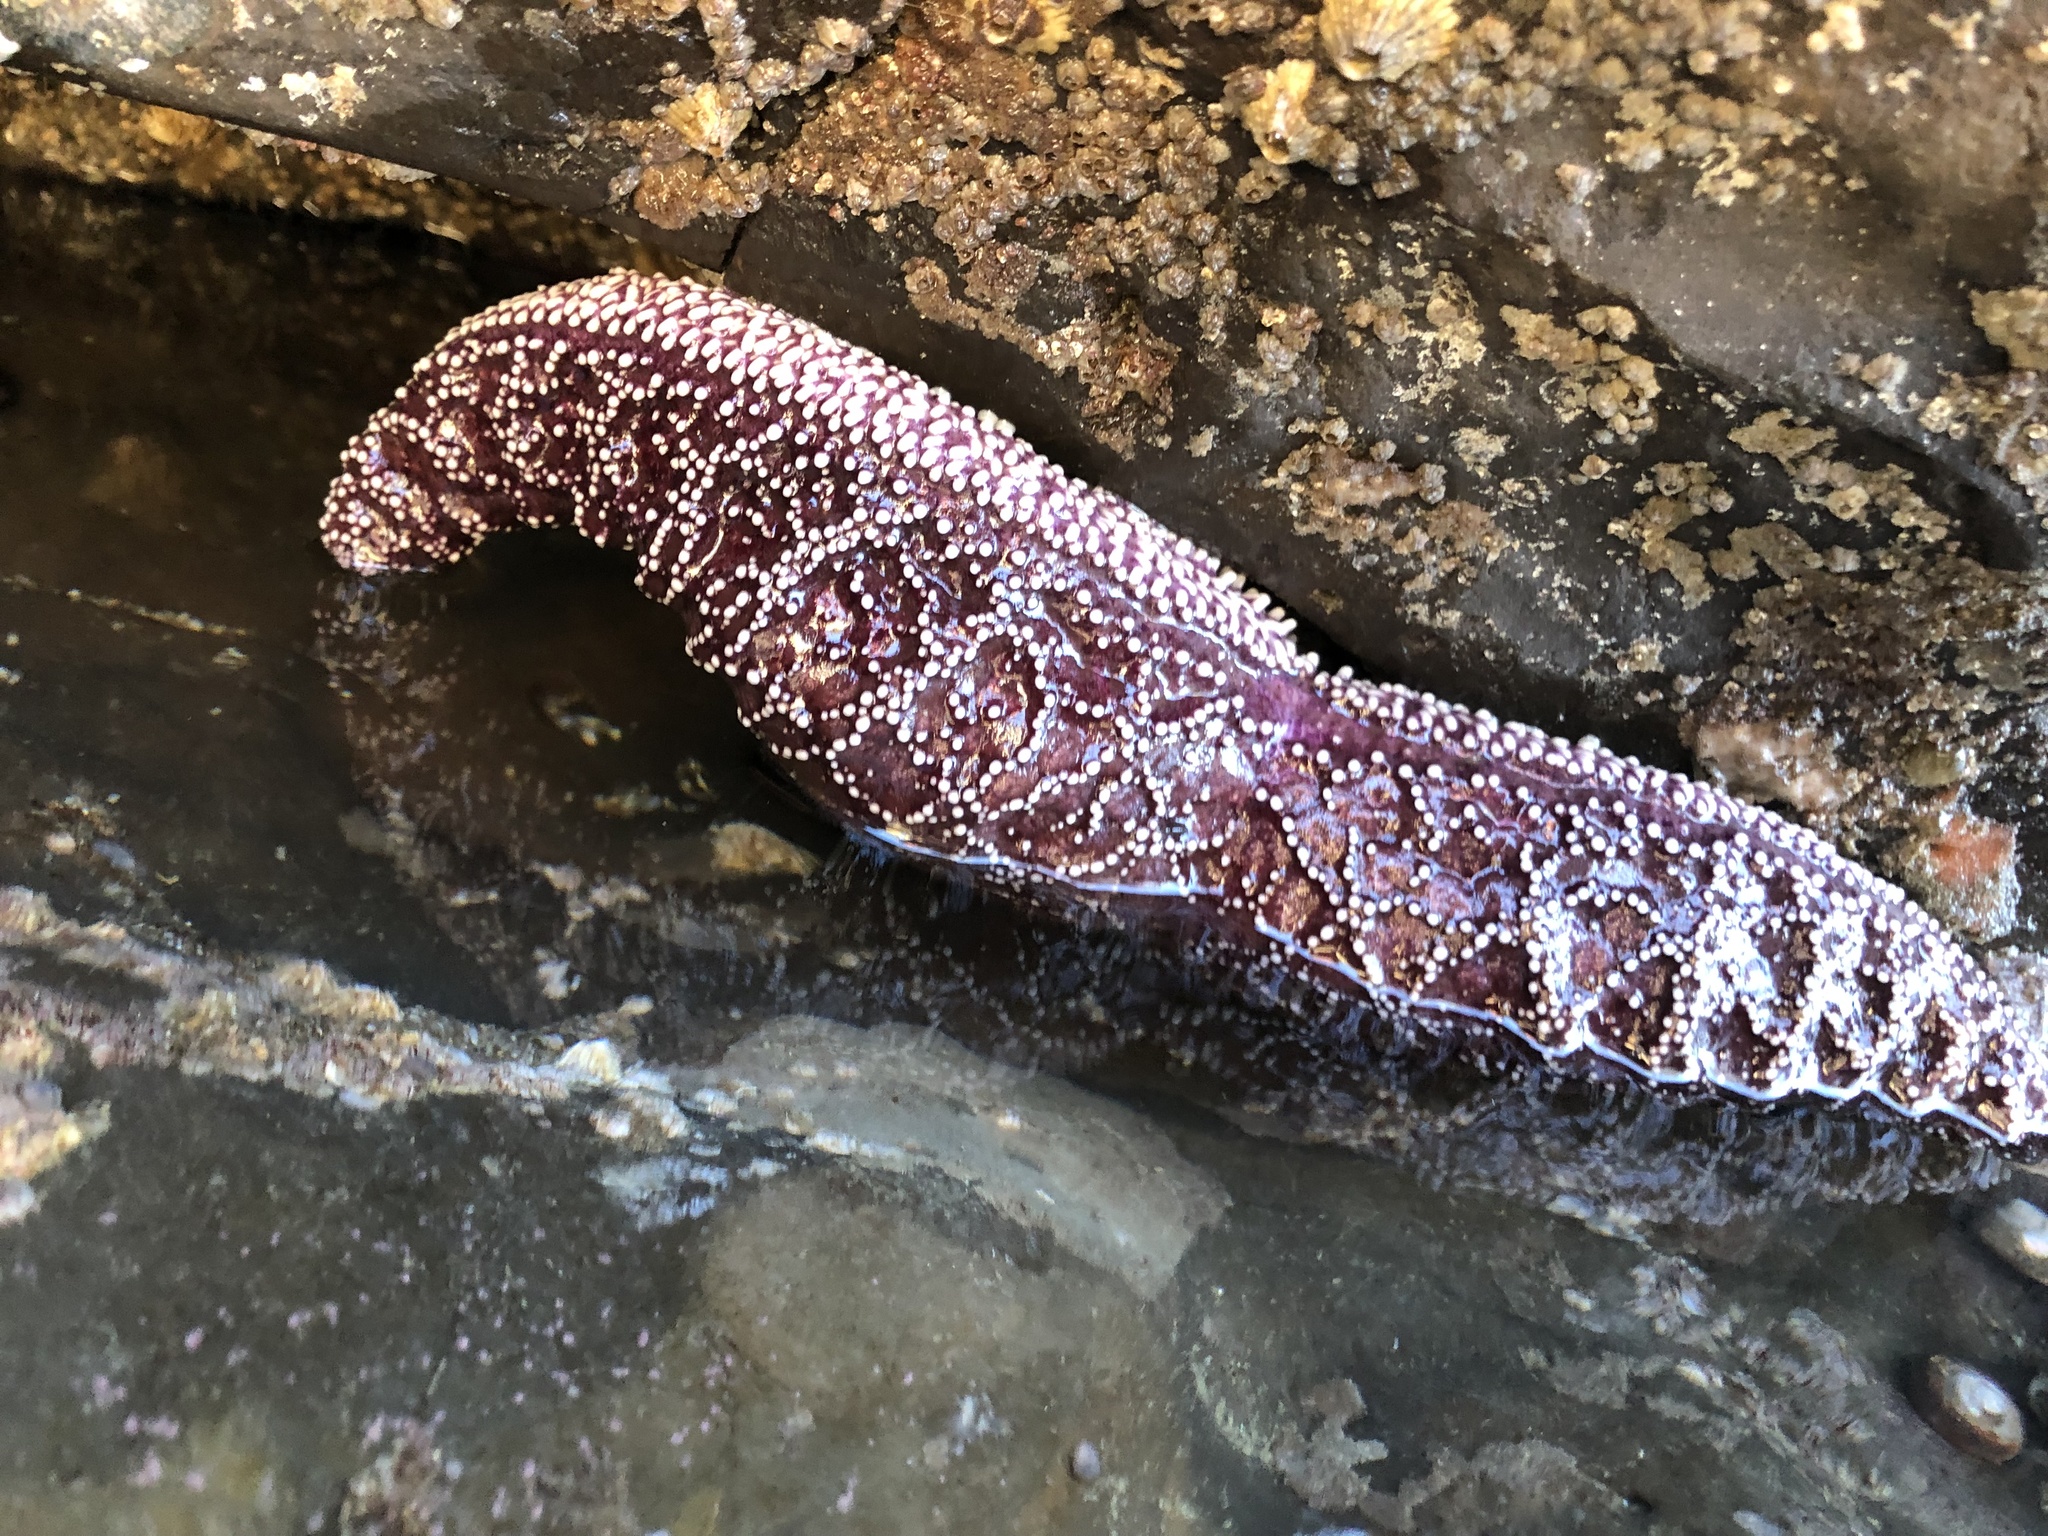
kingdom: Animalia
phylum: Echinodermata
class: Asteroidea
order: Forcipulatida
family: Asteriidae
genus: Pisaster
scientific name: Pisaster ochraceus
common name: Ochre stars
